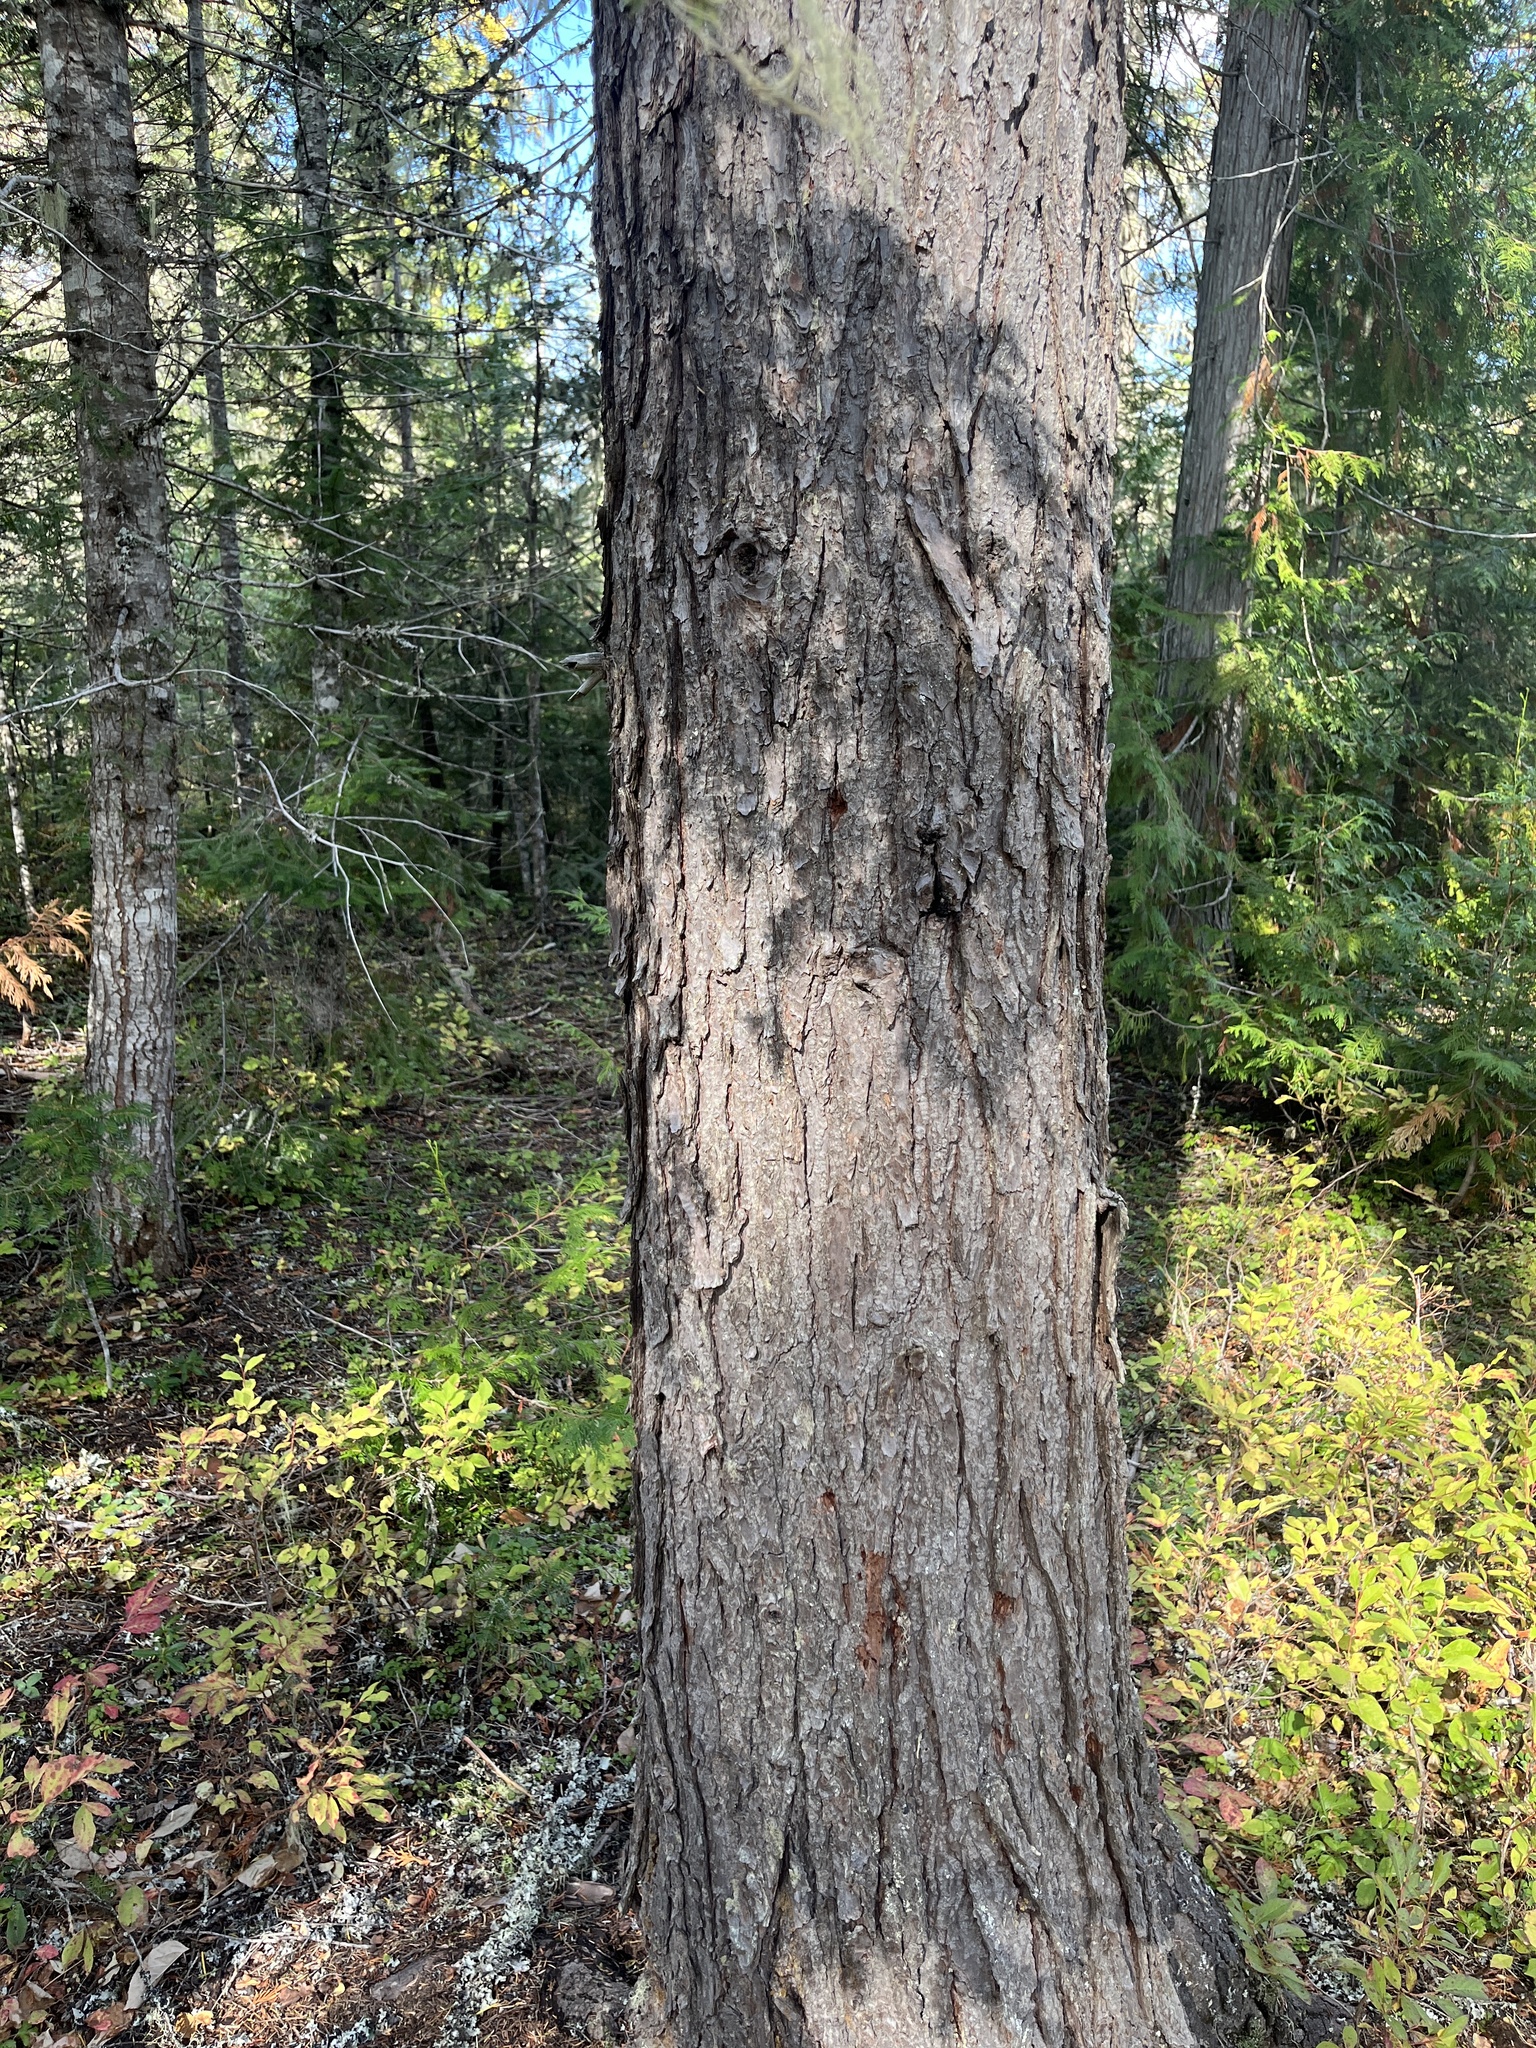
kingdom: Plantae
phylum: Tracheophyta
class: Pinopsida
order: Pinales
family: Pinaceae
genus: Tsuga
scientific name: Tsuga heterophylla
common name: Western hemlock
